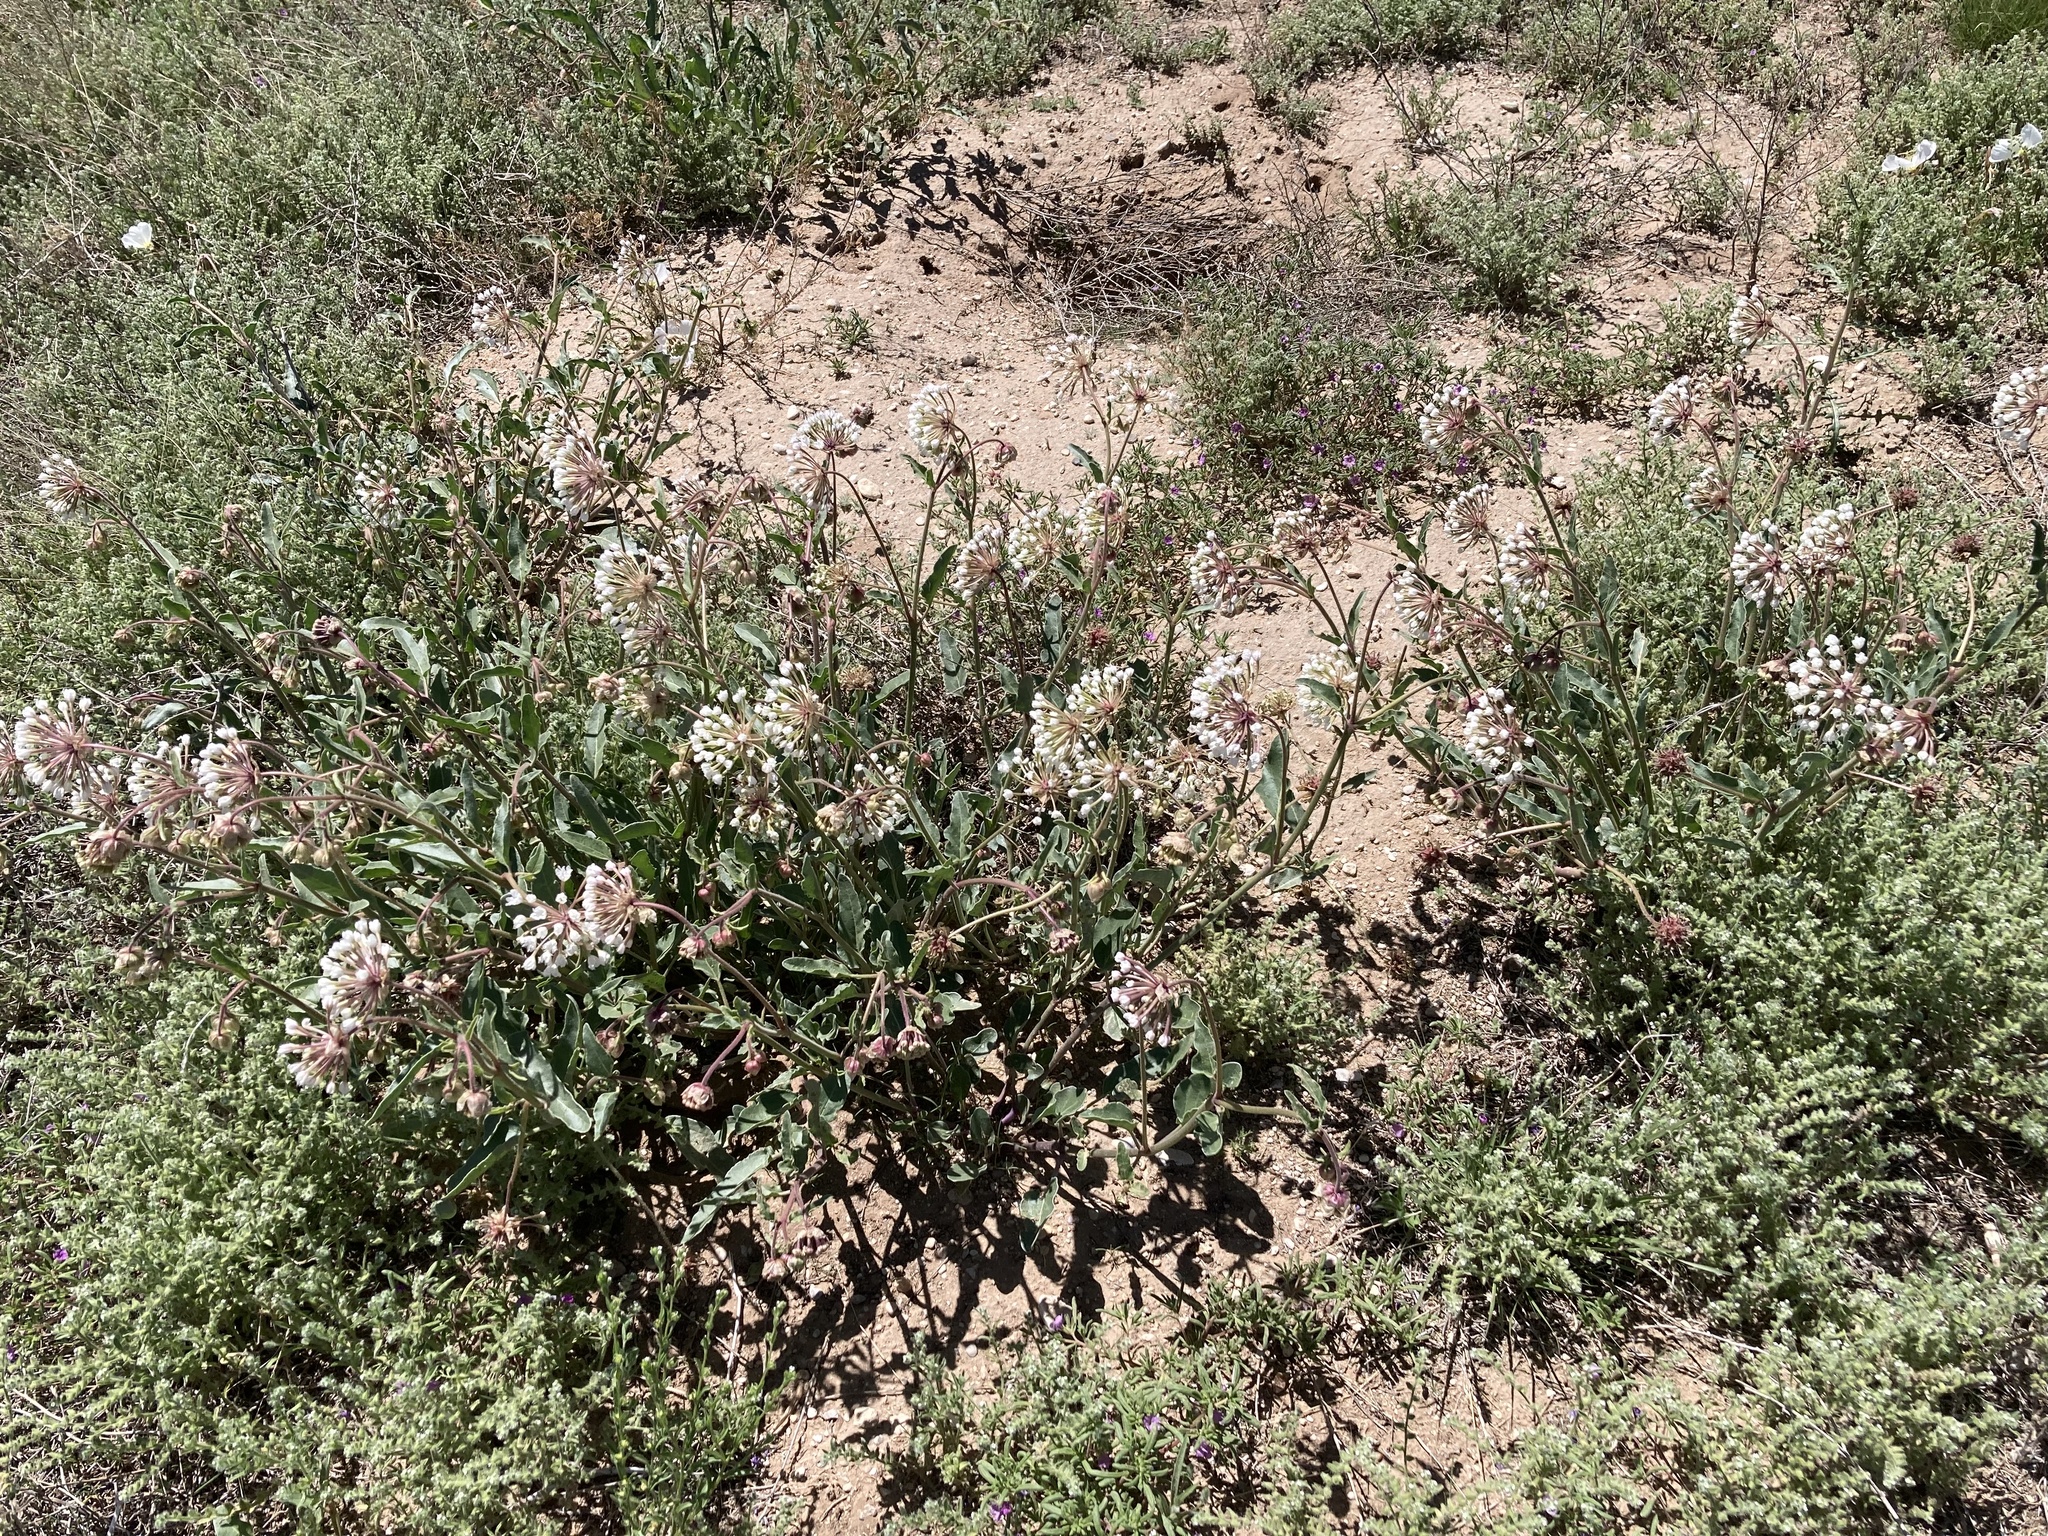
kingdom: Plantae
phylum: Tracheophyta
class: Magnoliopsida
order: Caryophyllales
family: Nyctaginaceae
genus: Abronia
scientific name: Abronia fragrans
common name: Fragrant sand-verbena
